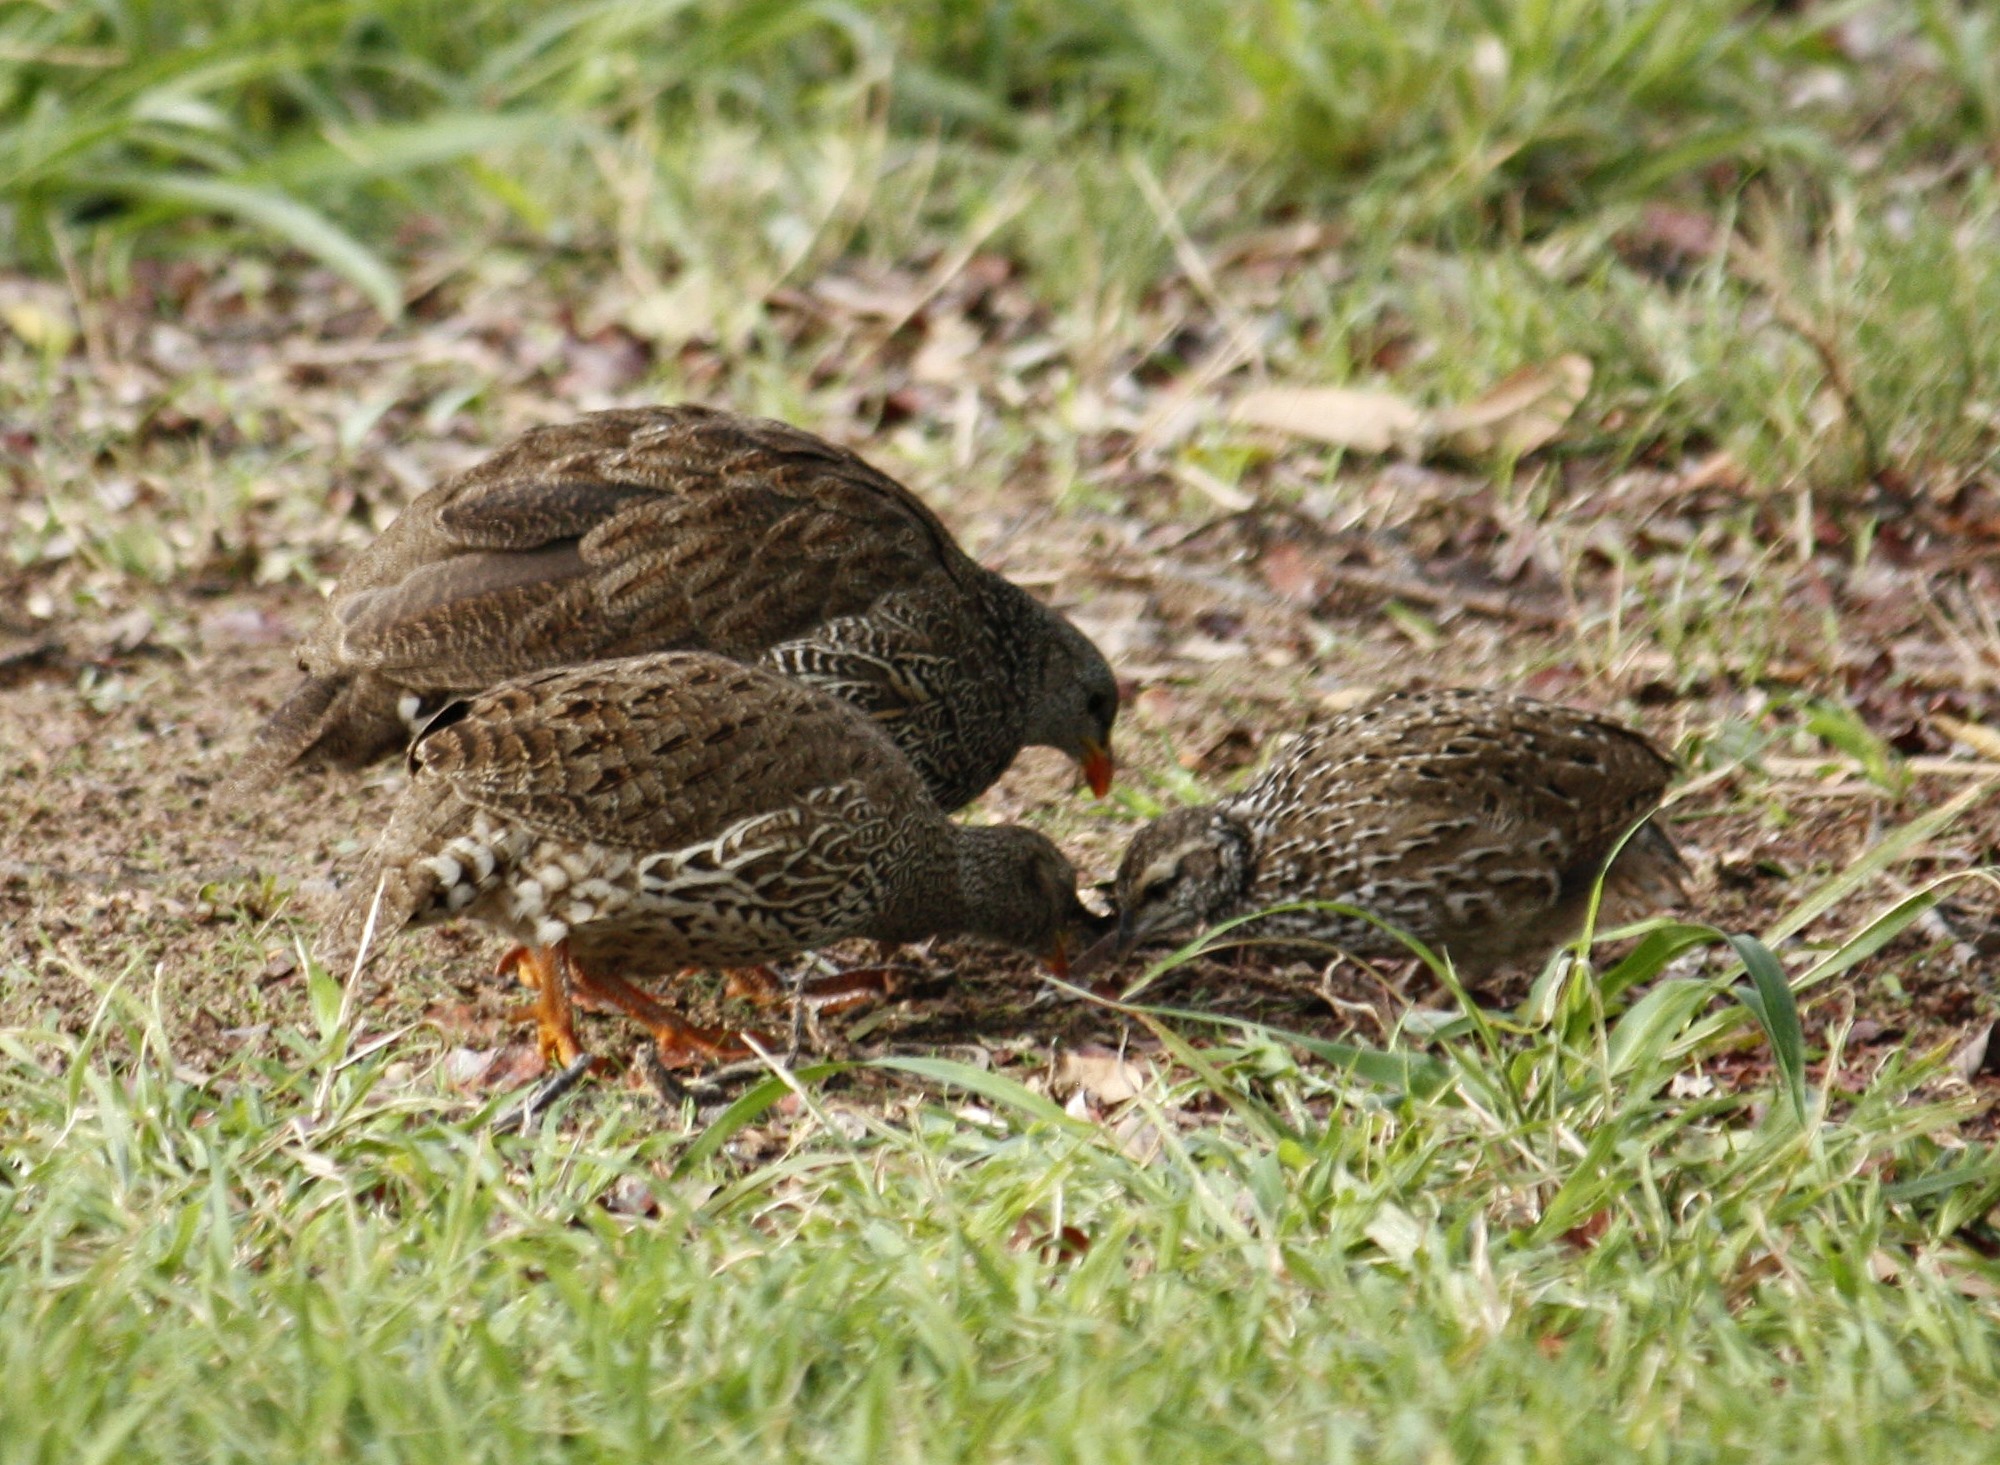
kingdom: Animalia
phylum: Chordata
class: Aves
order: Galliformes
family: Phasianidae
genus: Pternistis
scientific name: Pternistis natalensis
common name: Natal spurfowl
